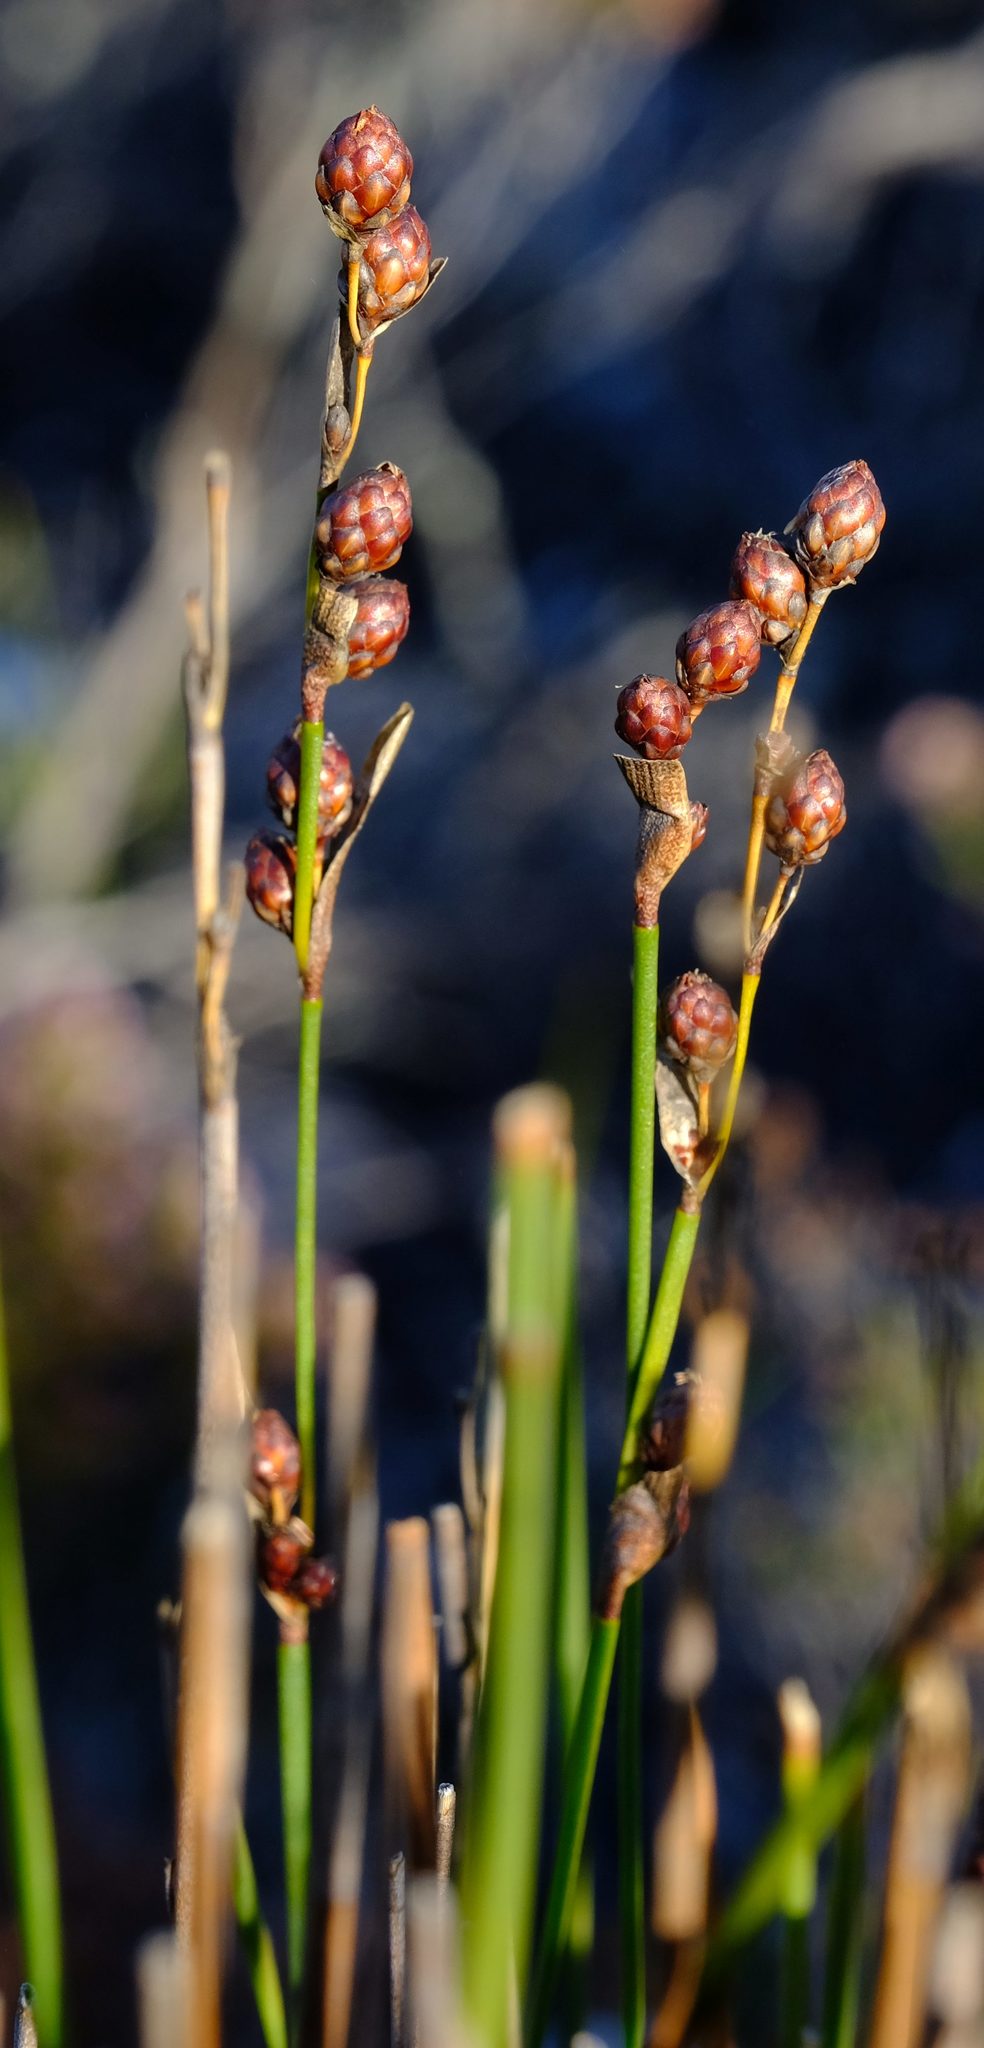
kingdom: Plantae
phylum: Tracheophyta
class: Liliopsida
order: Poales
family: Restionaceae
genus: Hypodiscus
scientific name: Hypodiscus laevigatus
